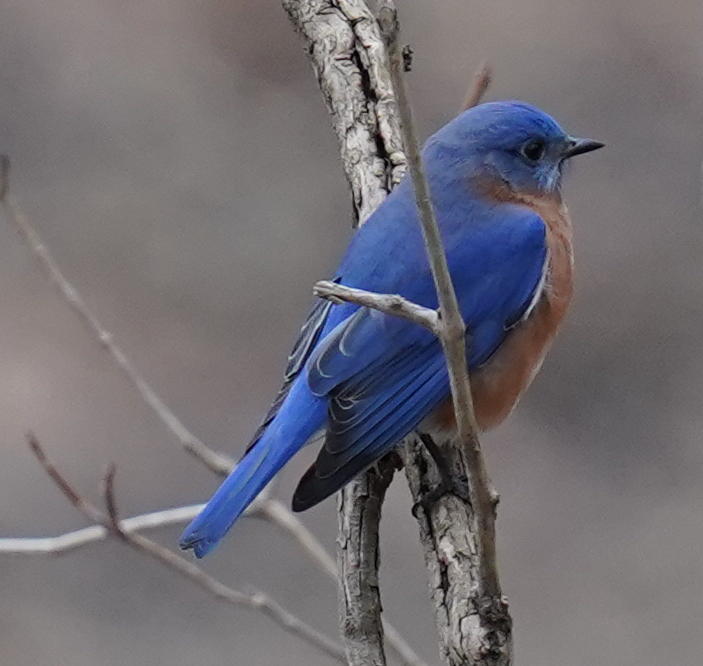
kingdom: Animalia
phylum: Chordata
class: Aves
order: Passeriformes
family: Turdidae
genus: Sialia
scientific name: Sialia sialis
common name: Eastern bluebird
